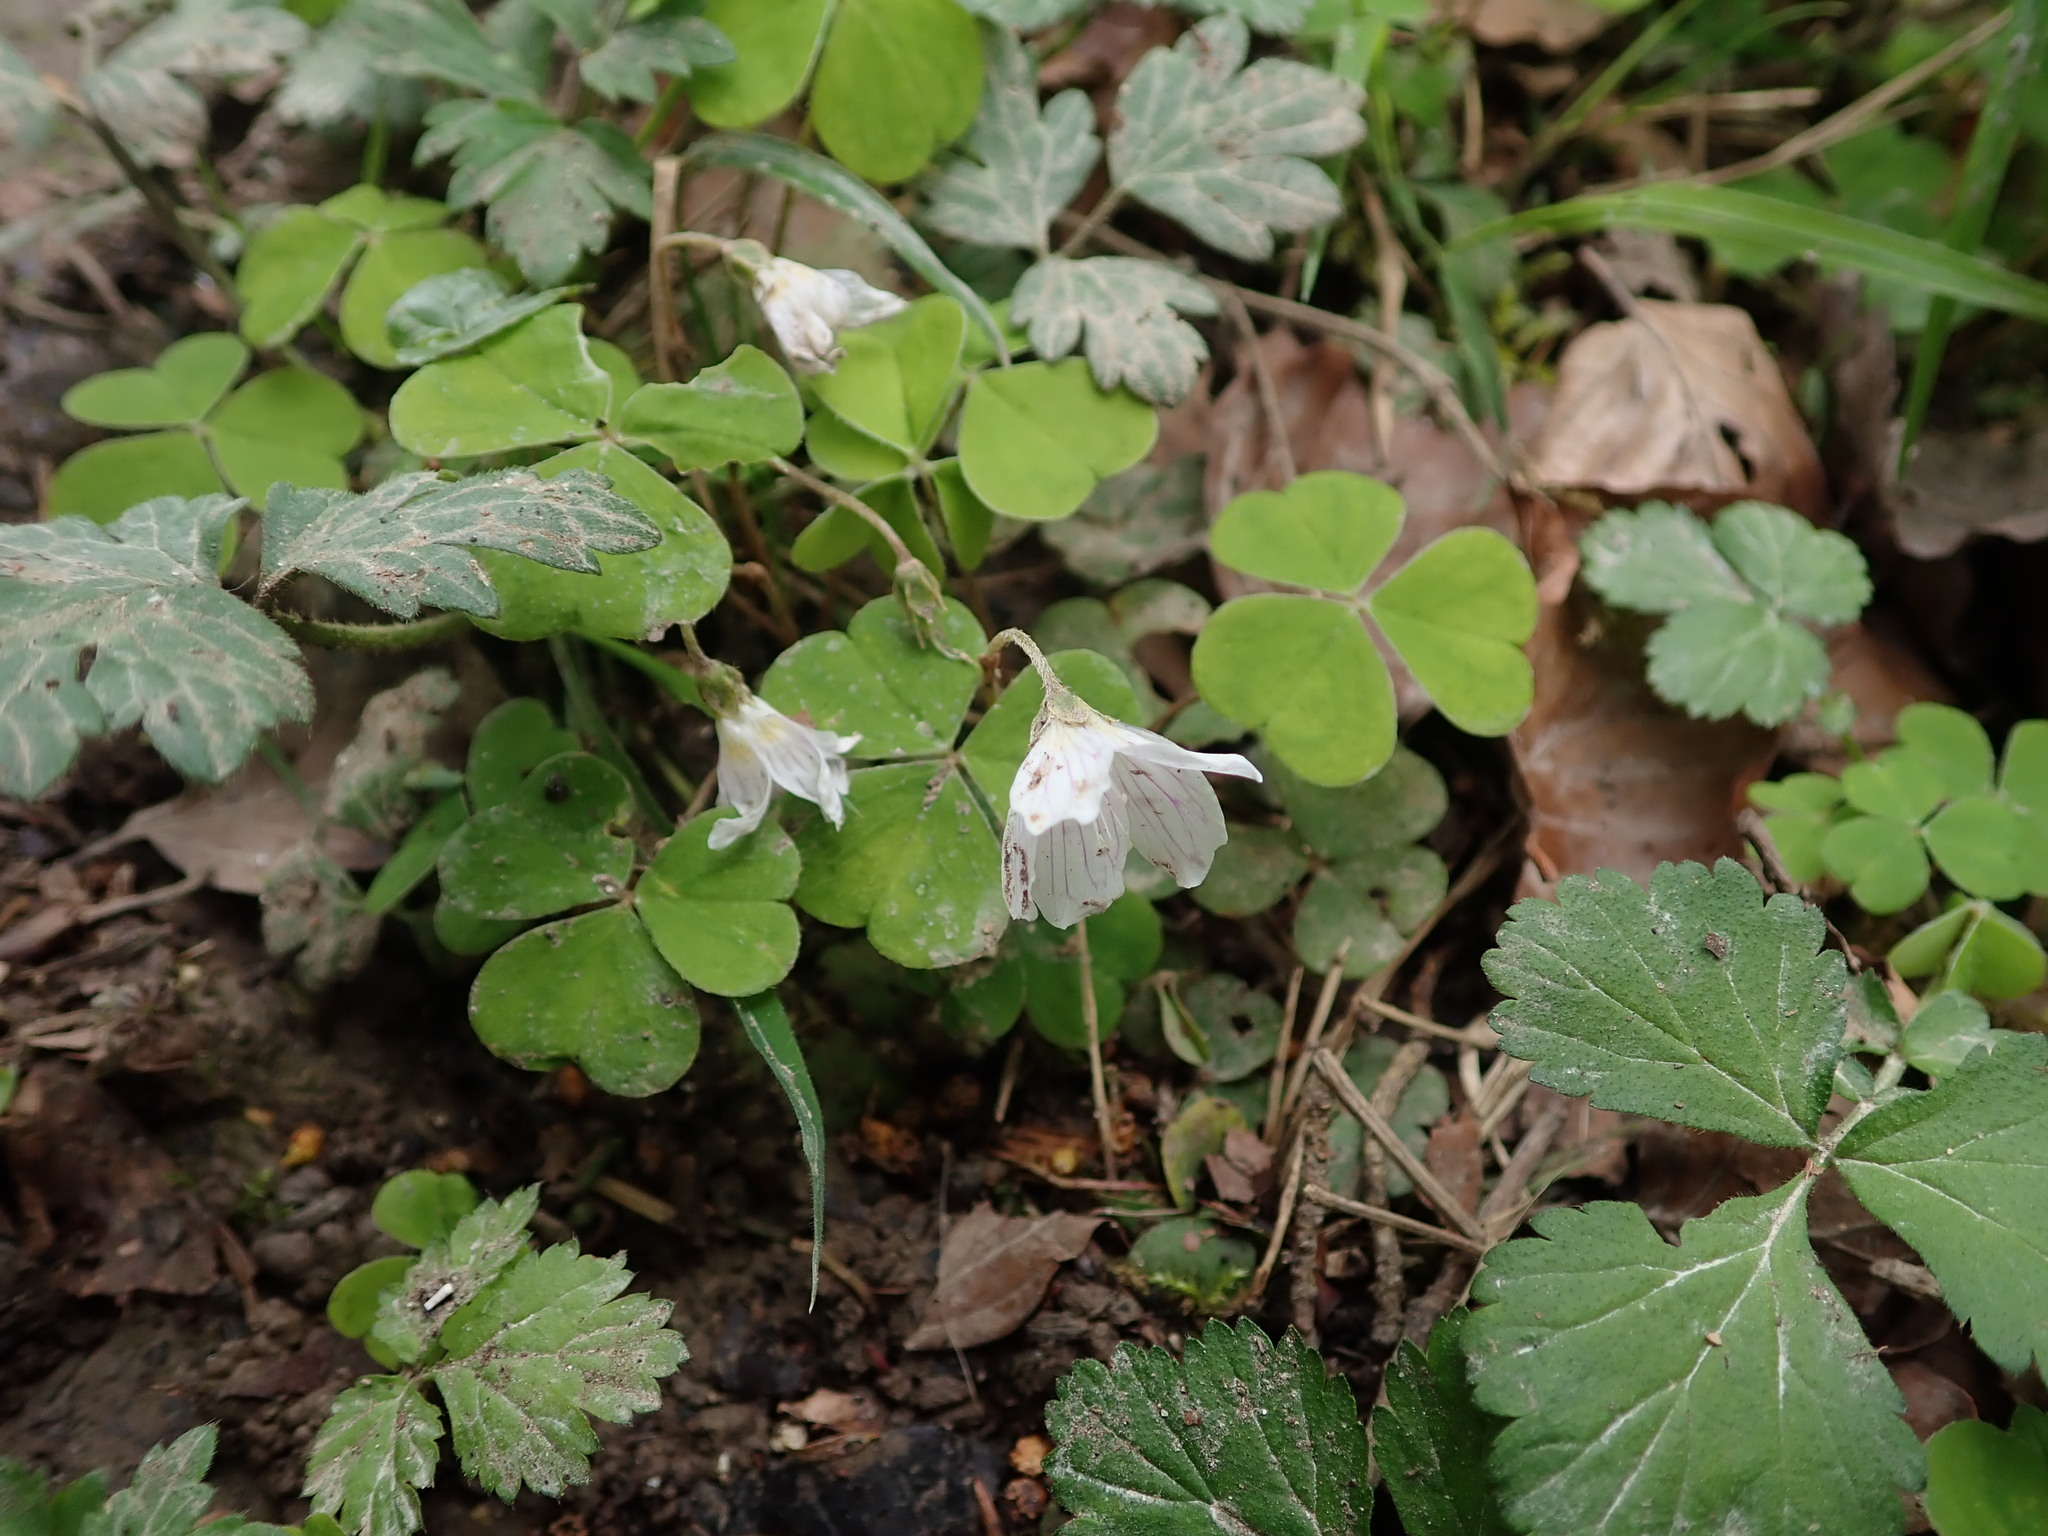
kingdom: Plantae
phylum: Tracheophyta
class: Magnoliopsida
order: Oxalidales
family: Oxalidaceae
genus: Oxalis
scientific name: Oxalis acetosella
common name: Wood-sorrel
